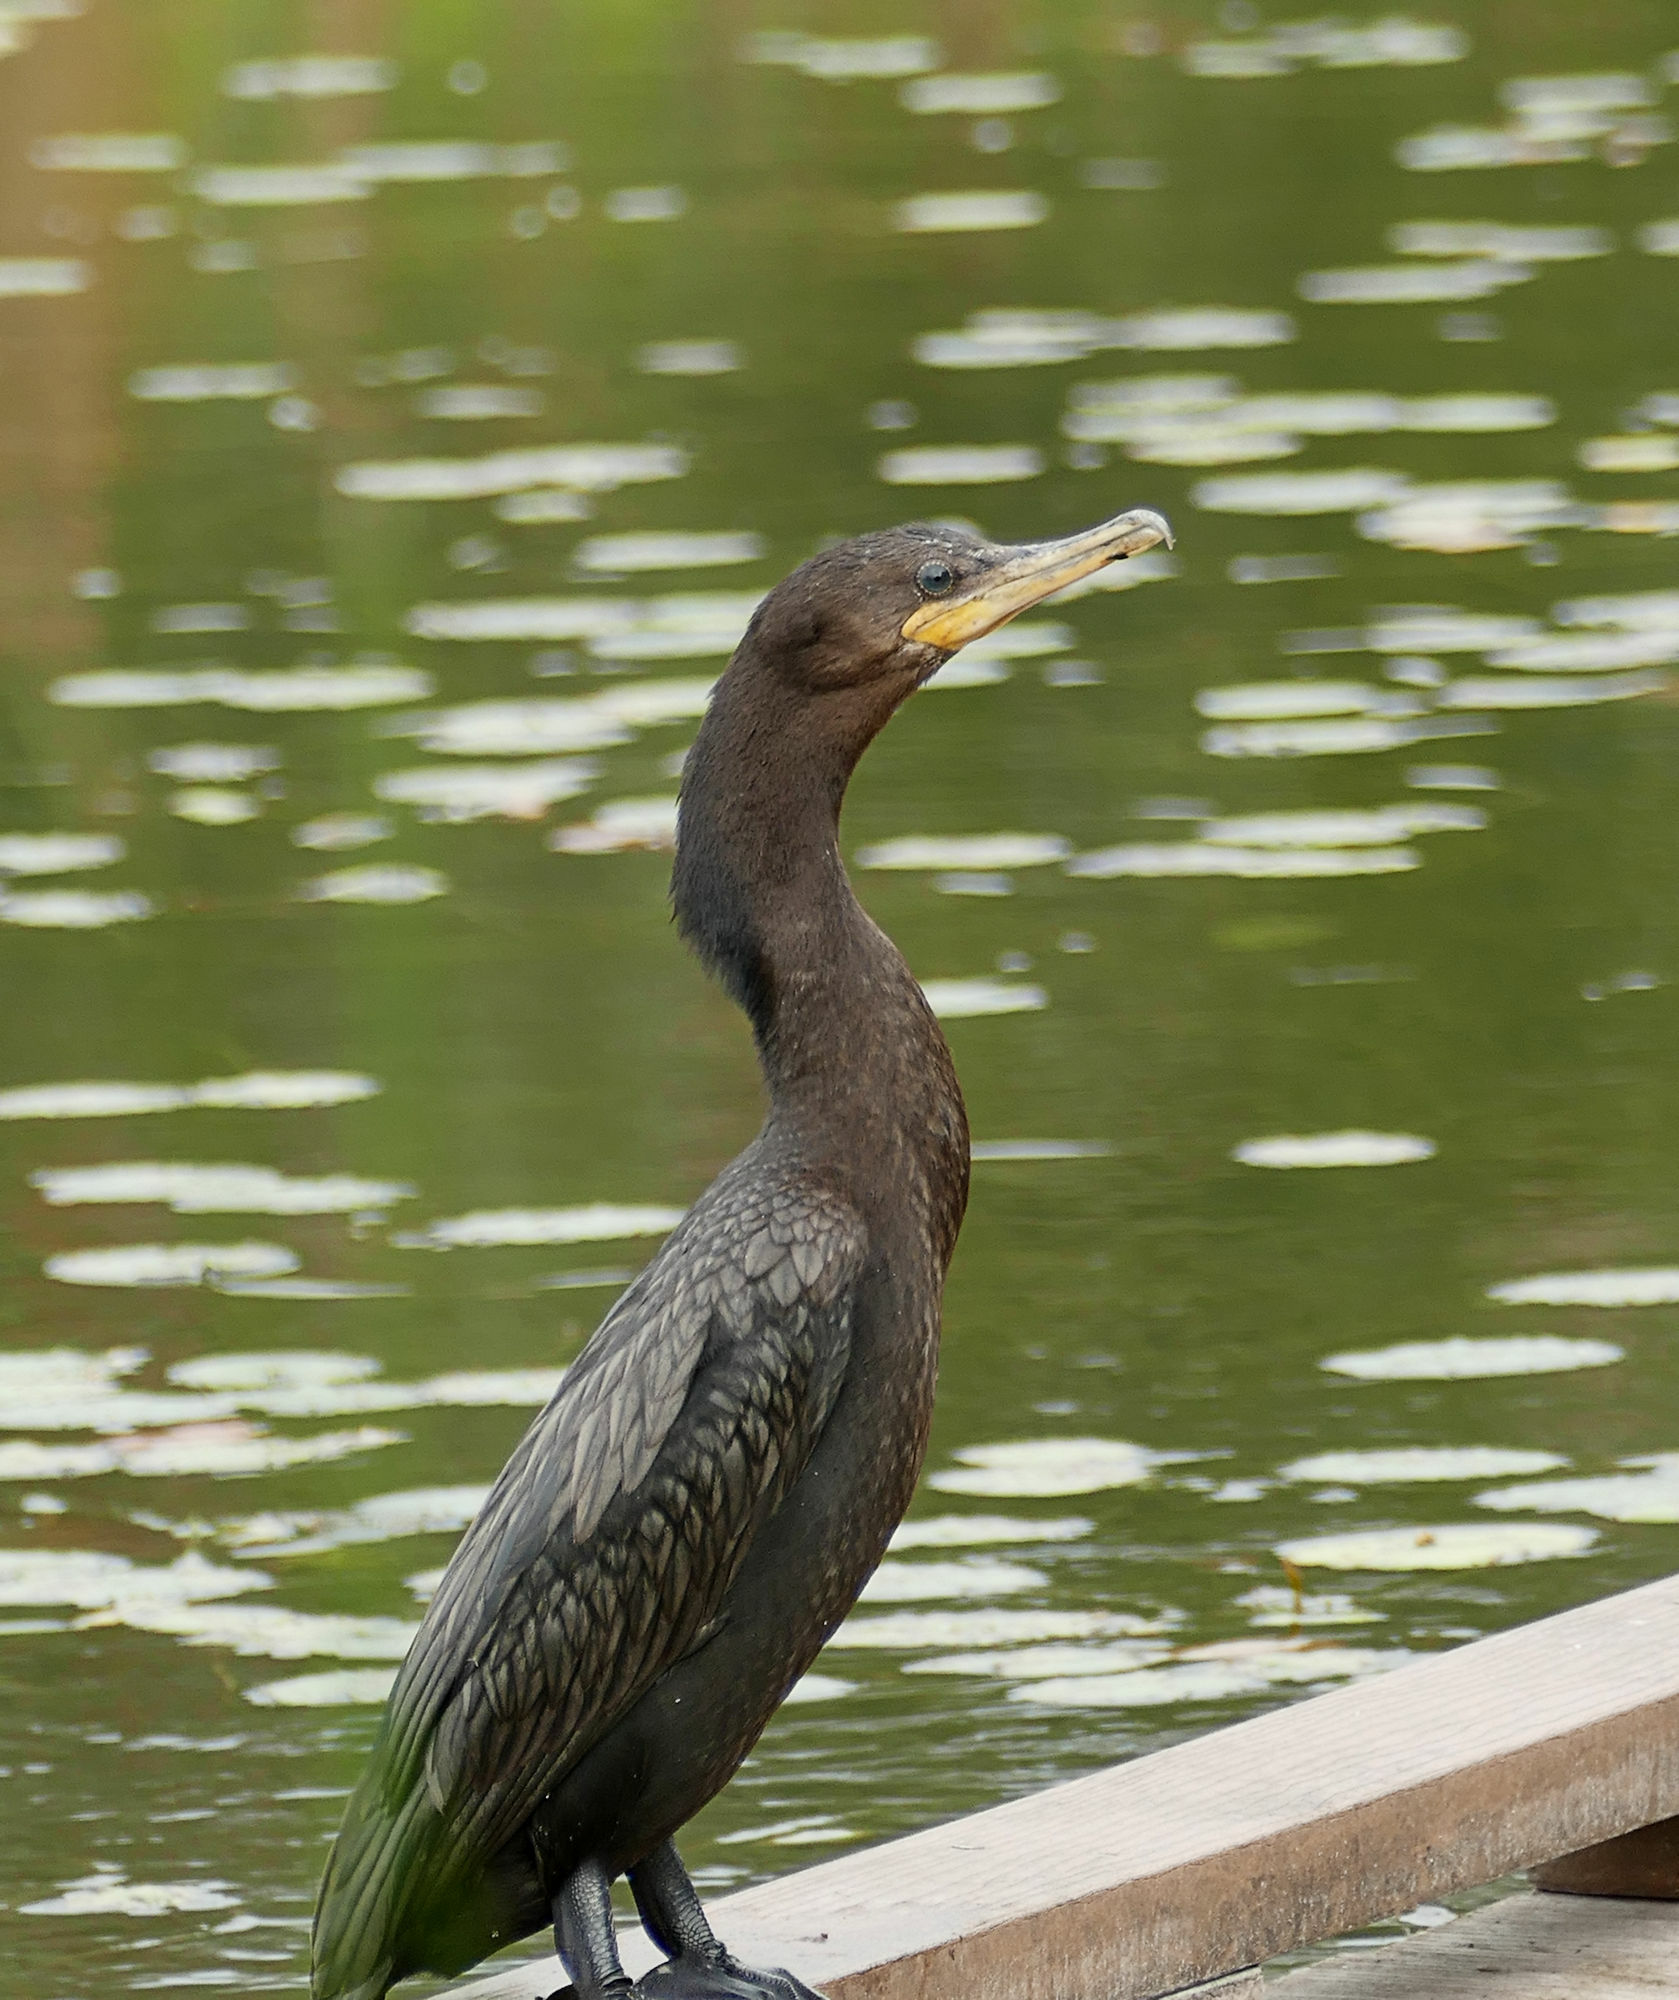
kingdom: Animalia
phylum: Chordata
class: Aves
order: Suliformes
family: Phalacrocoracidae
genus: Phalacrocorax
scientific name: Phalacrocorax brasilianus
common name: Neotropic cormorant
